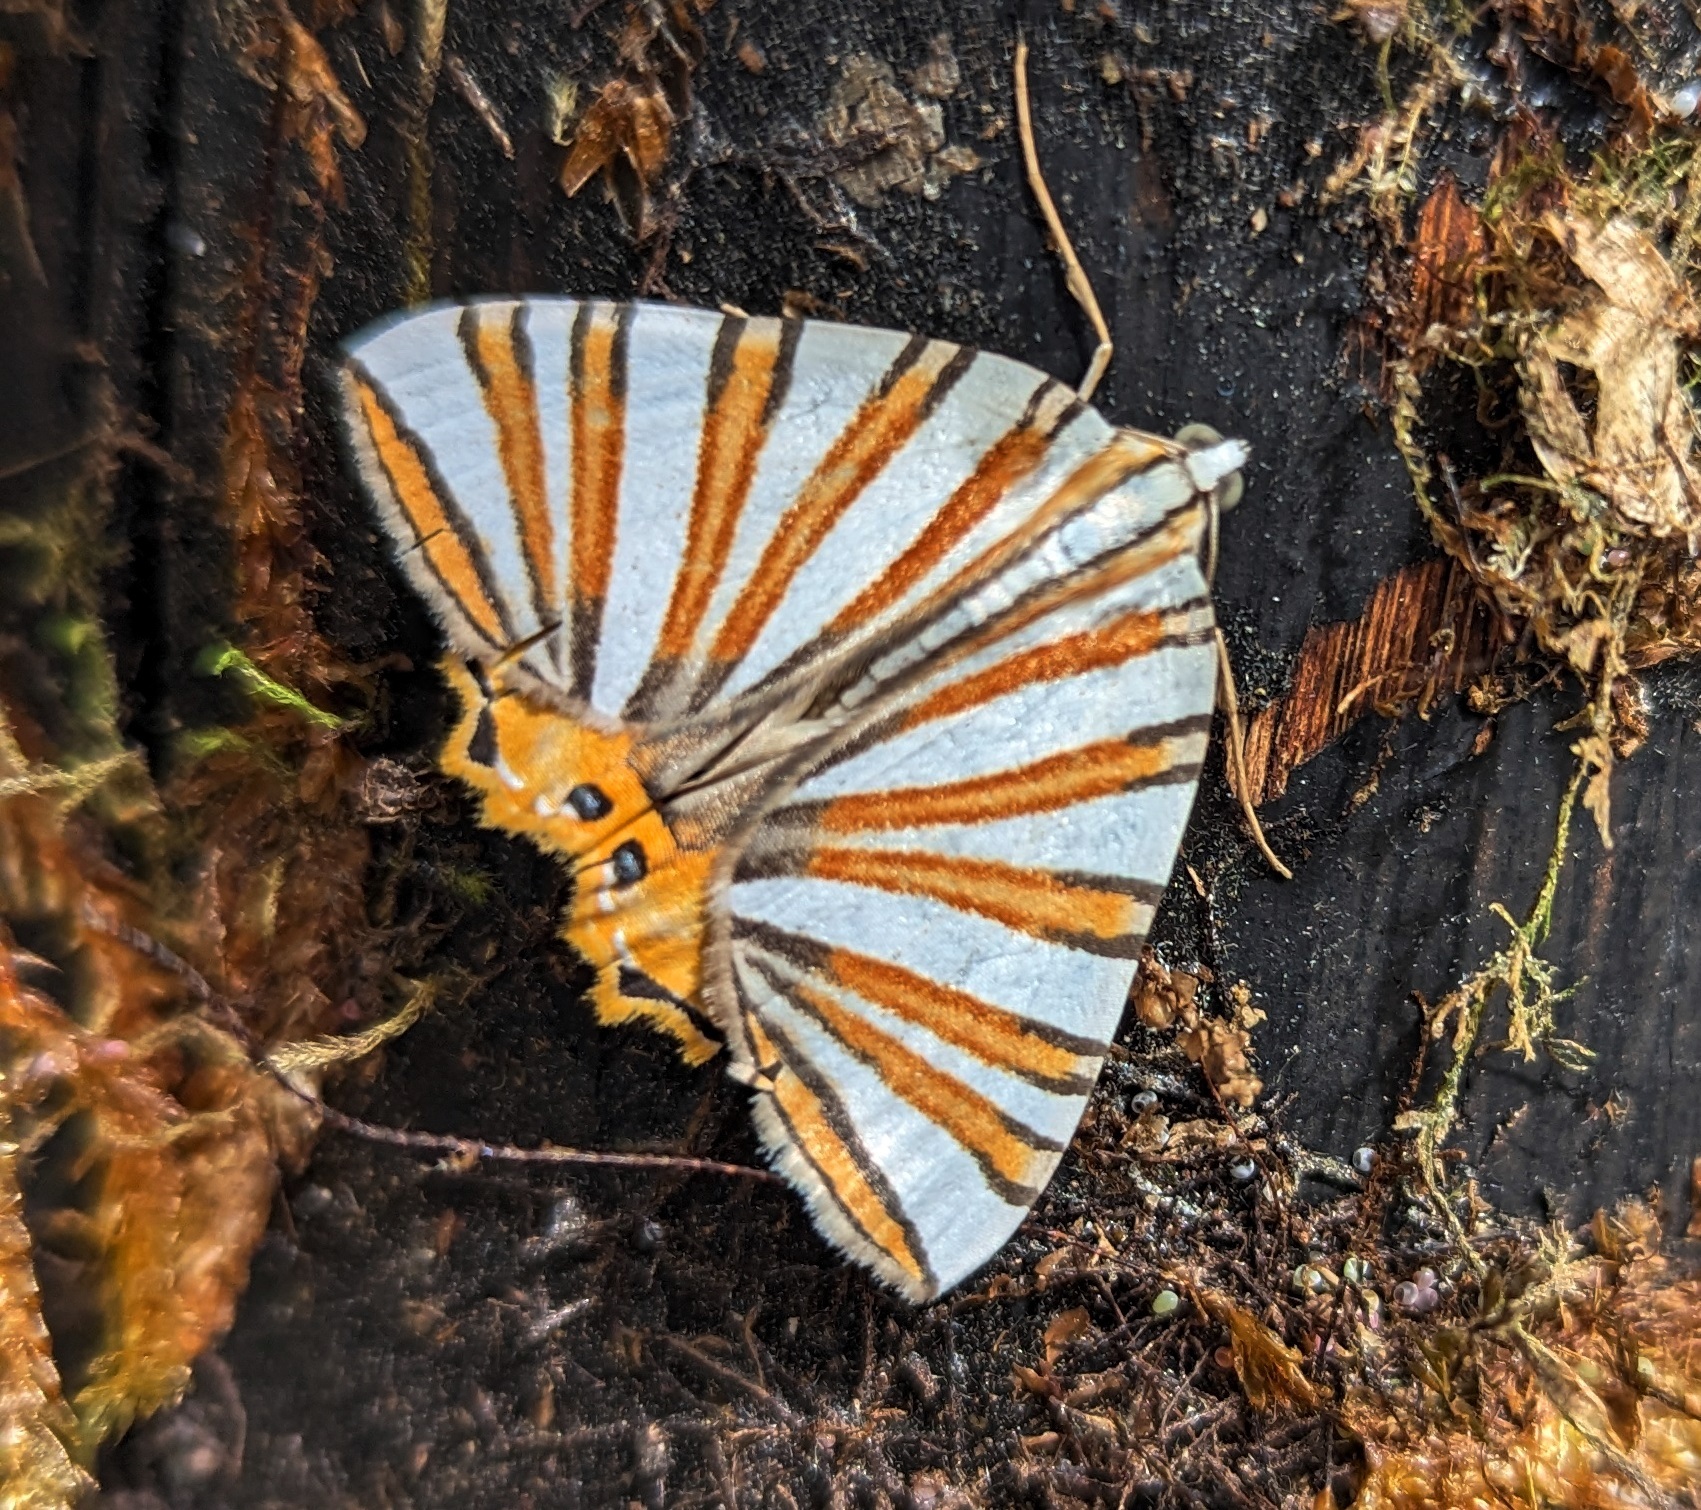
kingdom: Animalia
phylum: Arthropoda
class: Insecta
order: Lepidoptera
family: Geometridae
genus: Pityeja
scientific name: Pityeja histrionaria
